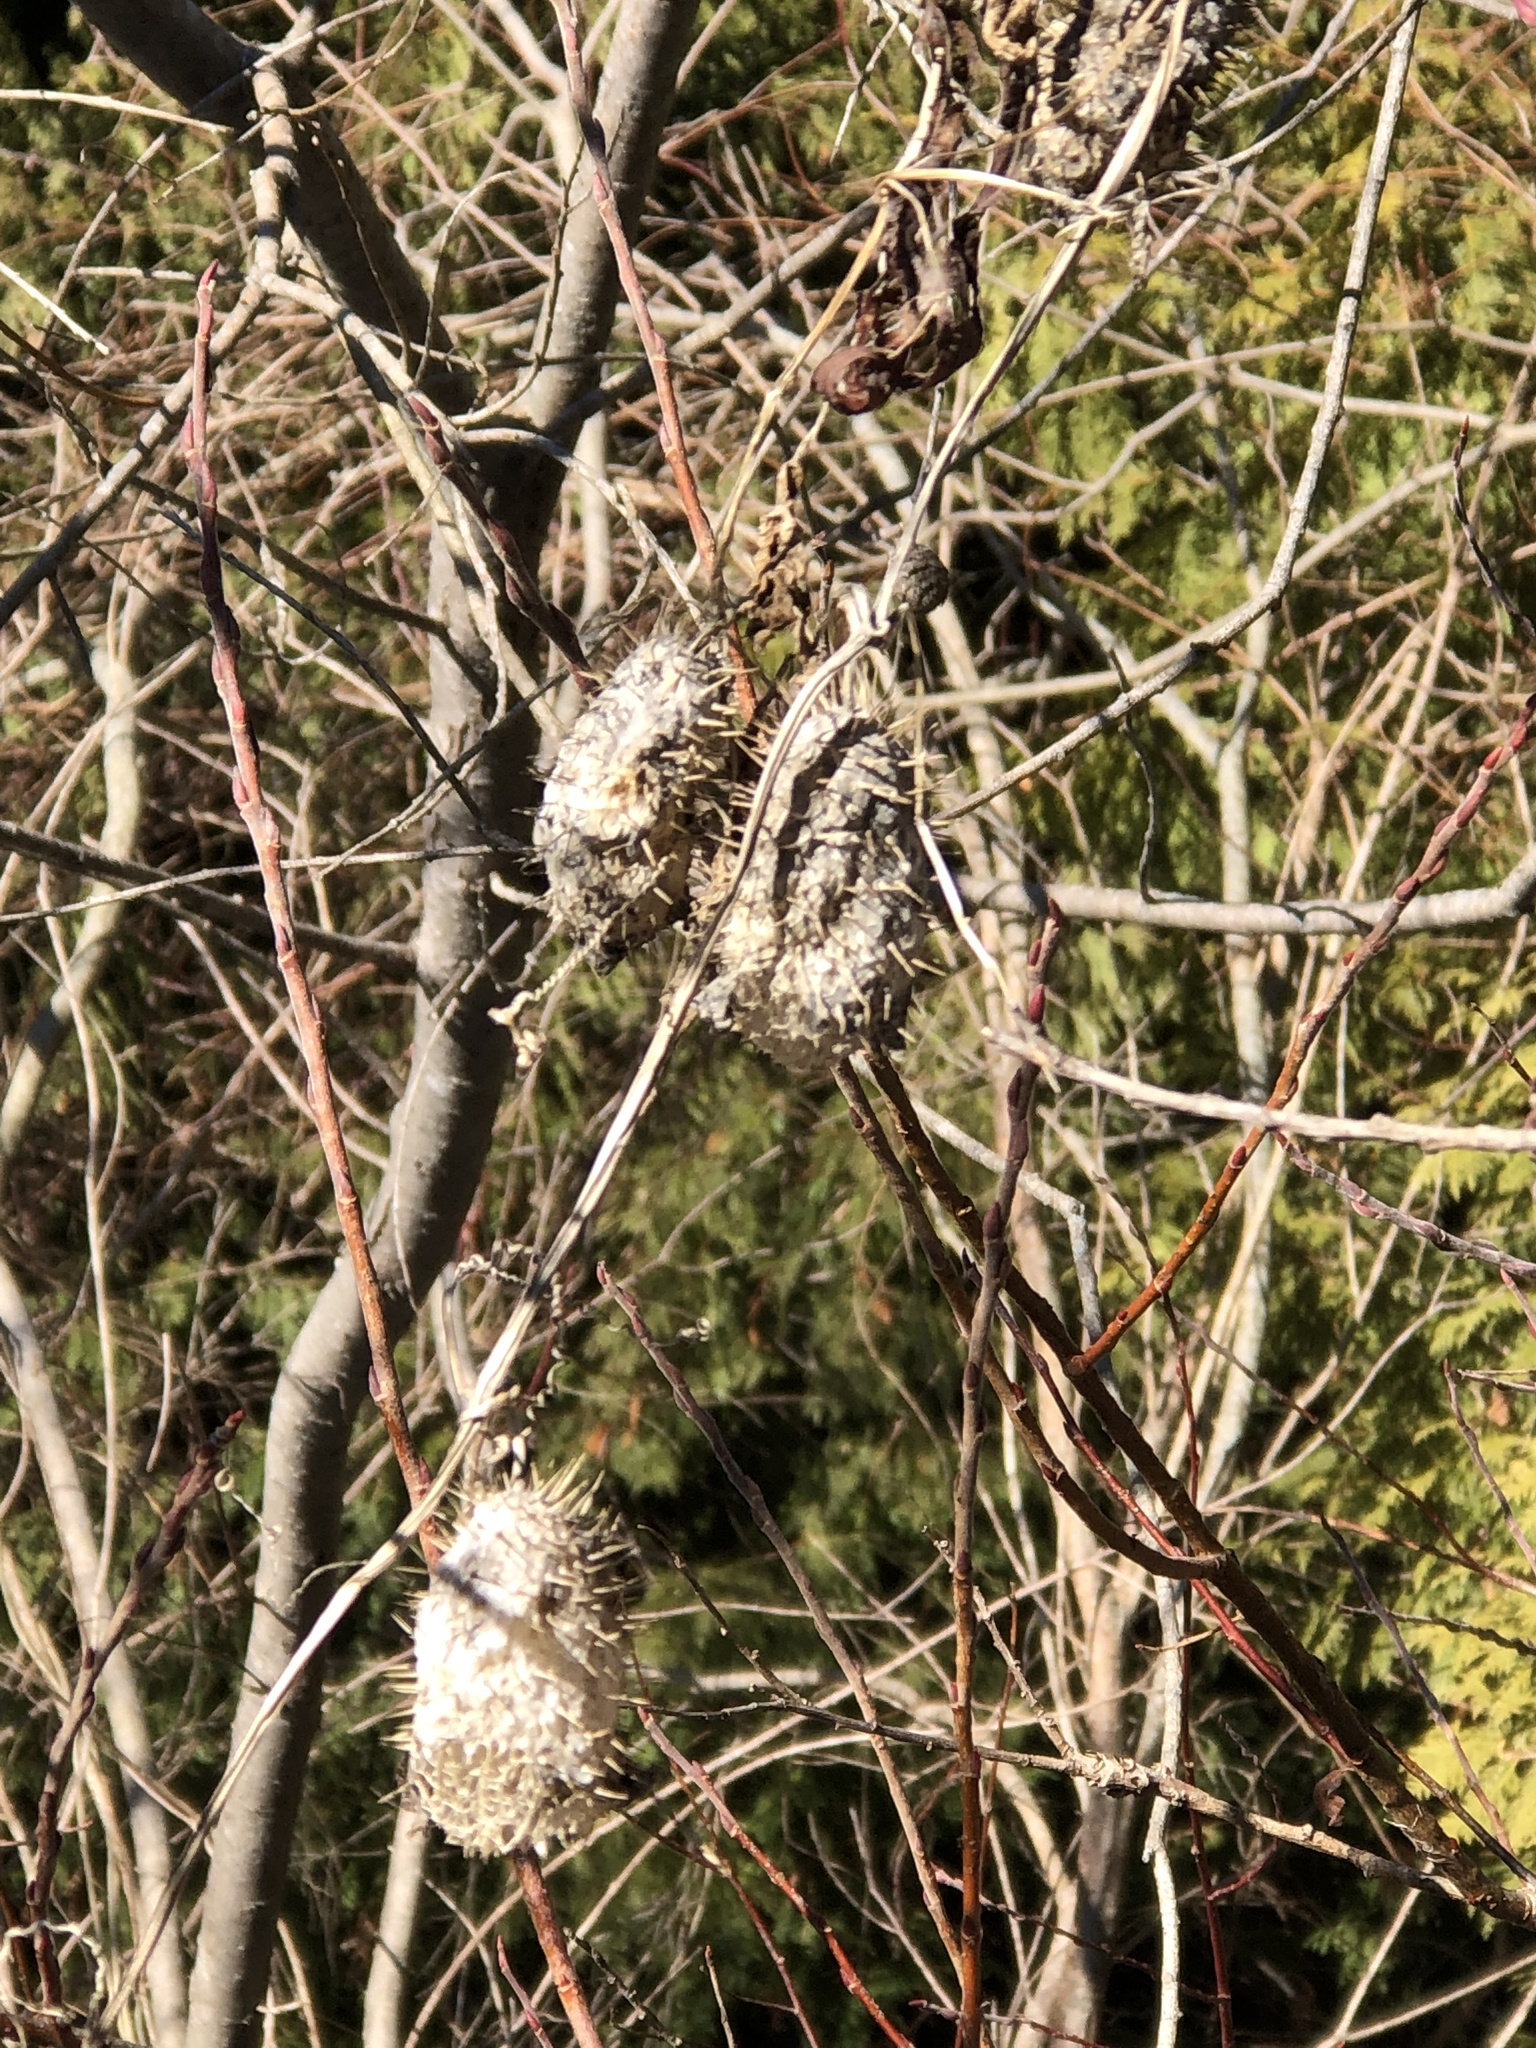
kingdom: Plantae
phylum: Tracheophyta
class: Magnoliopsida
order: Cucurbitales
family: Cucurbitaceae
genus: Echinocystis
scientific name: Echinocystis lobata
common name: Wild cucumber
